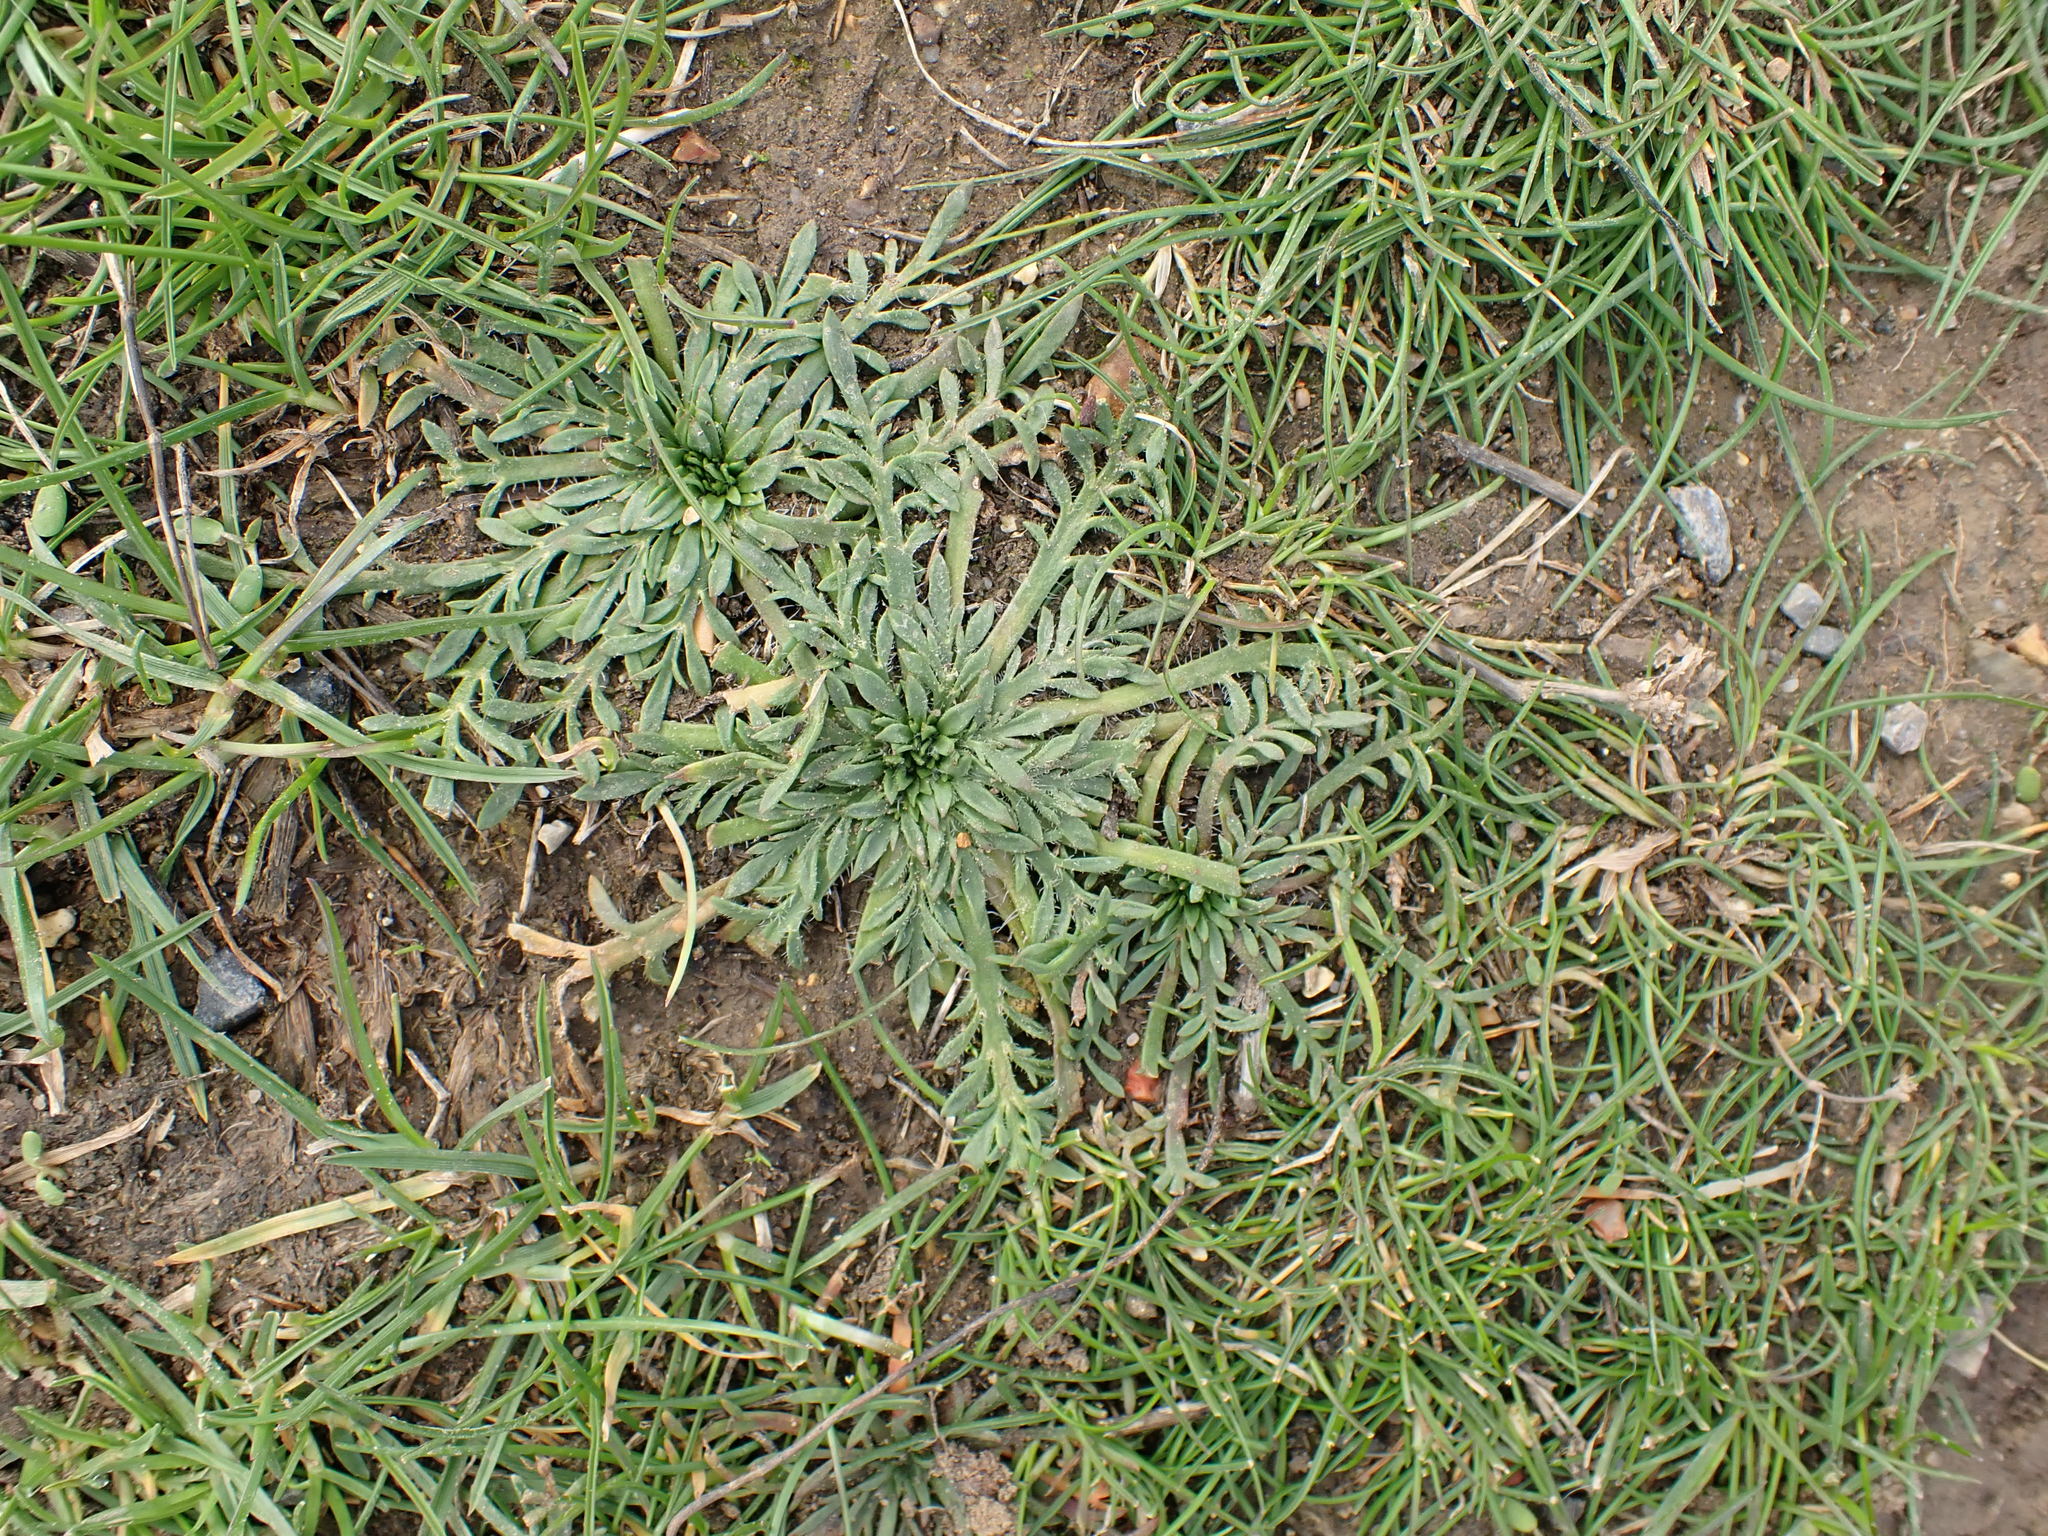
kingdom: Plantae
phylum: Tracheophyta
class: Magnoliopsida
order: Lamiales
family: Plantaginaceae
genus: Plantago
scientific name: Plantago coronopus
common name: Buck's-horn plantain
